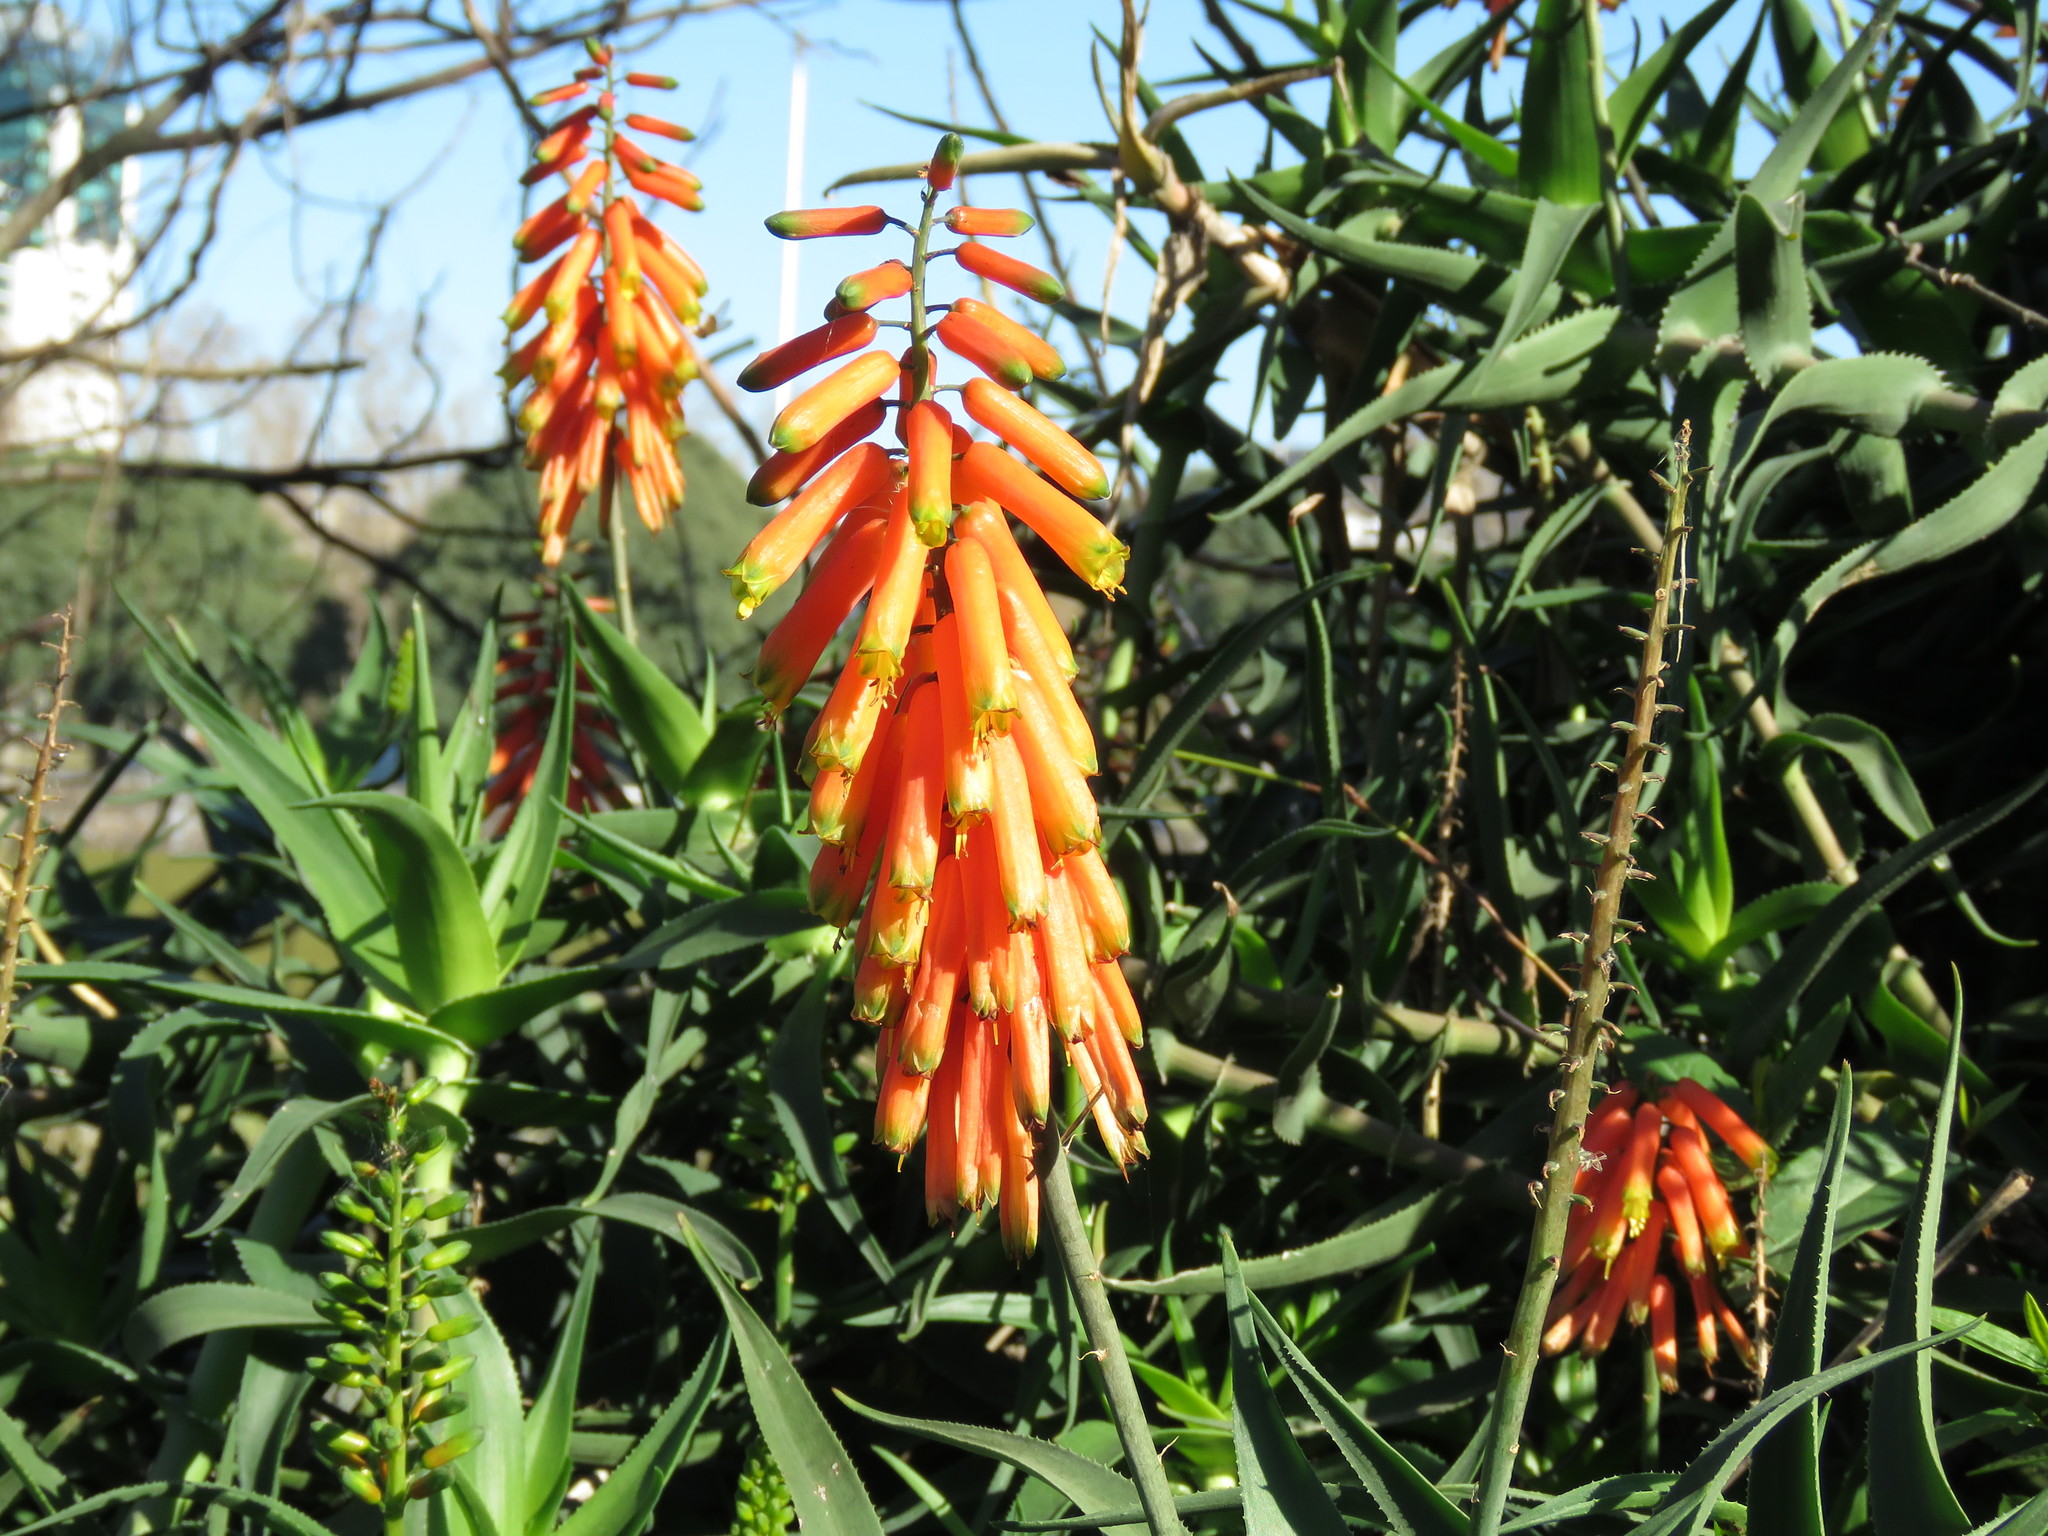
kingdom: Plantae
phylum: Tracheophyta
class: Liliopsida
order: Asparagales
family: Asphodelaceae
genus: Aloiampelos
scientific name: Aloiampelos ciliaris
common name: Climbing aloe
